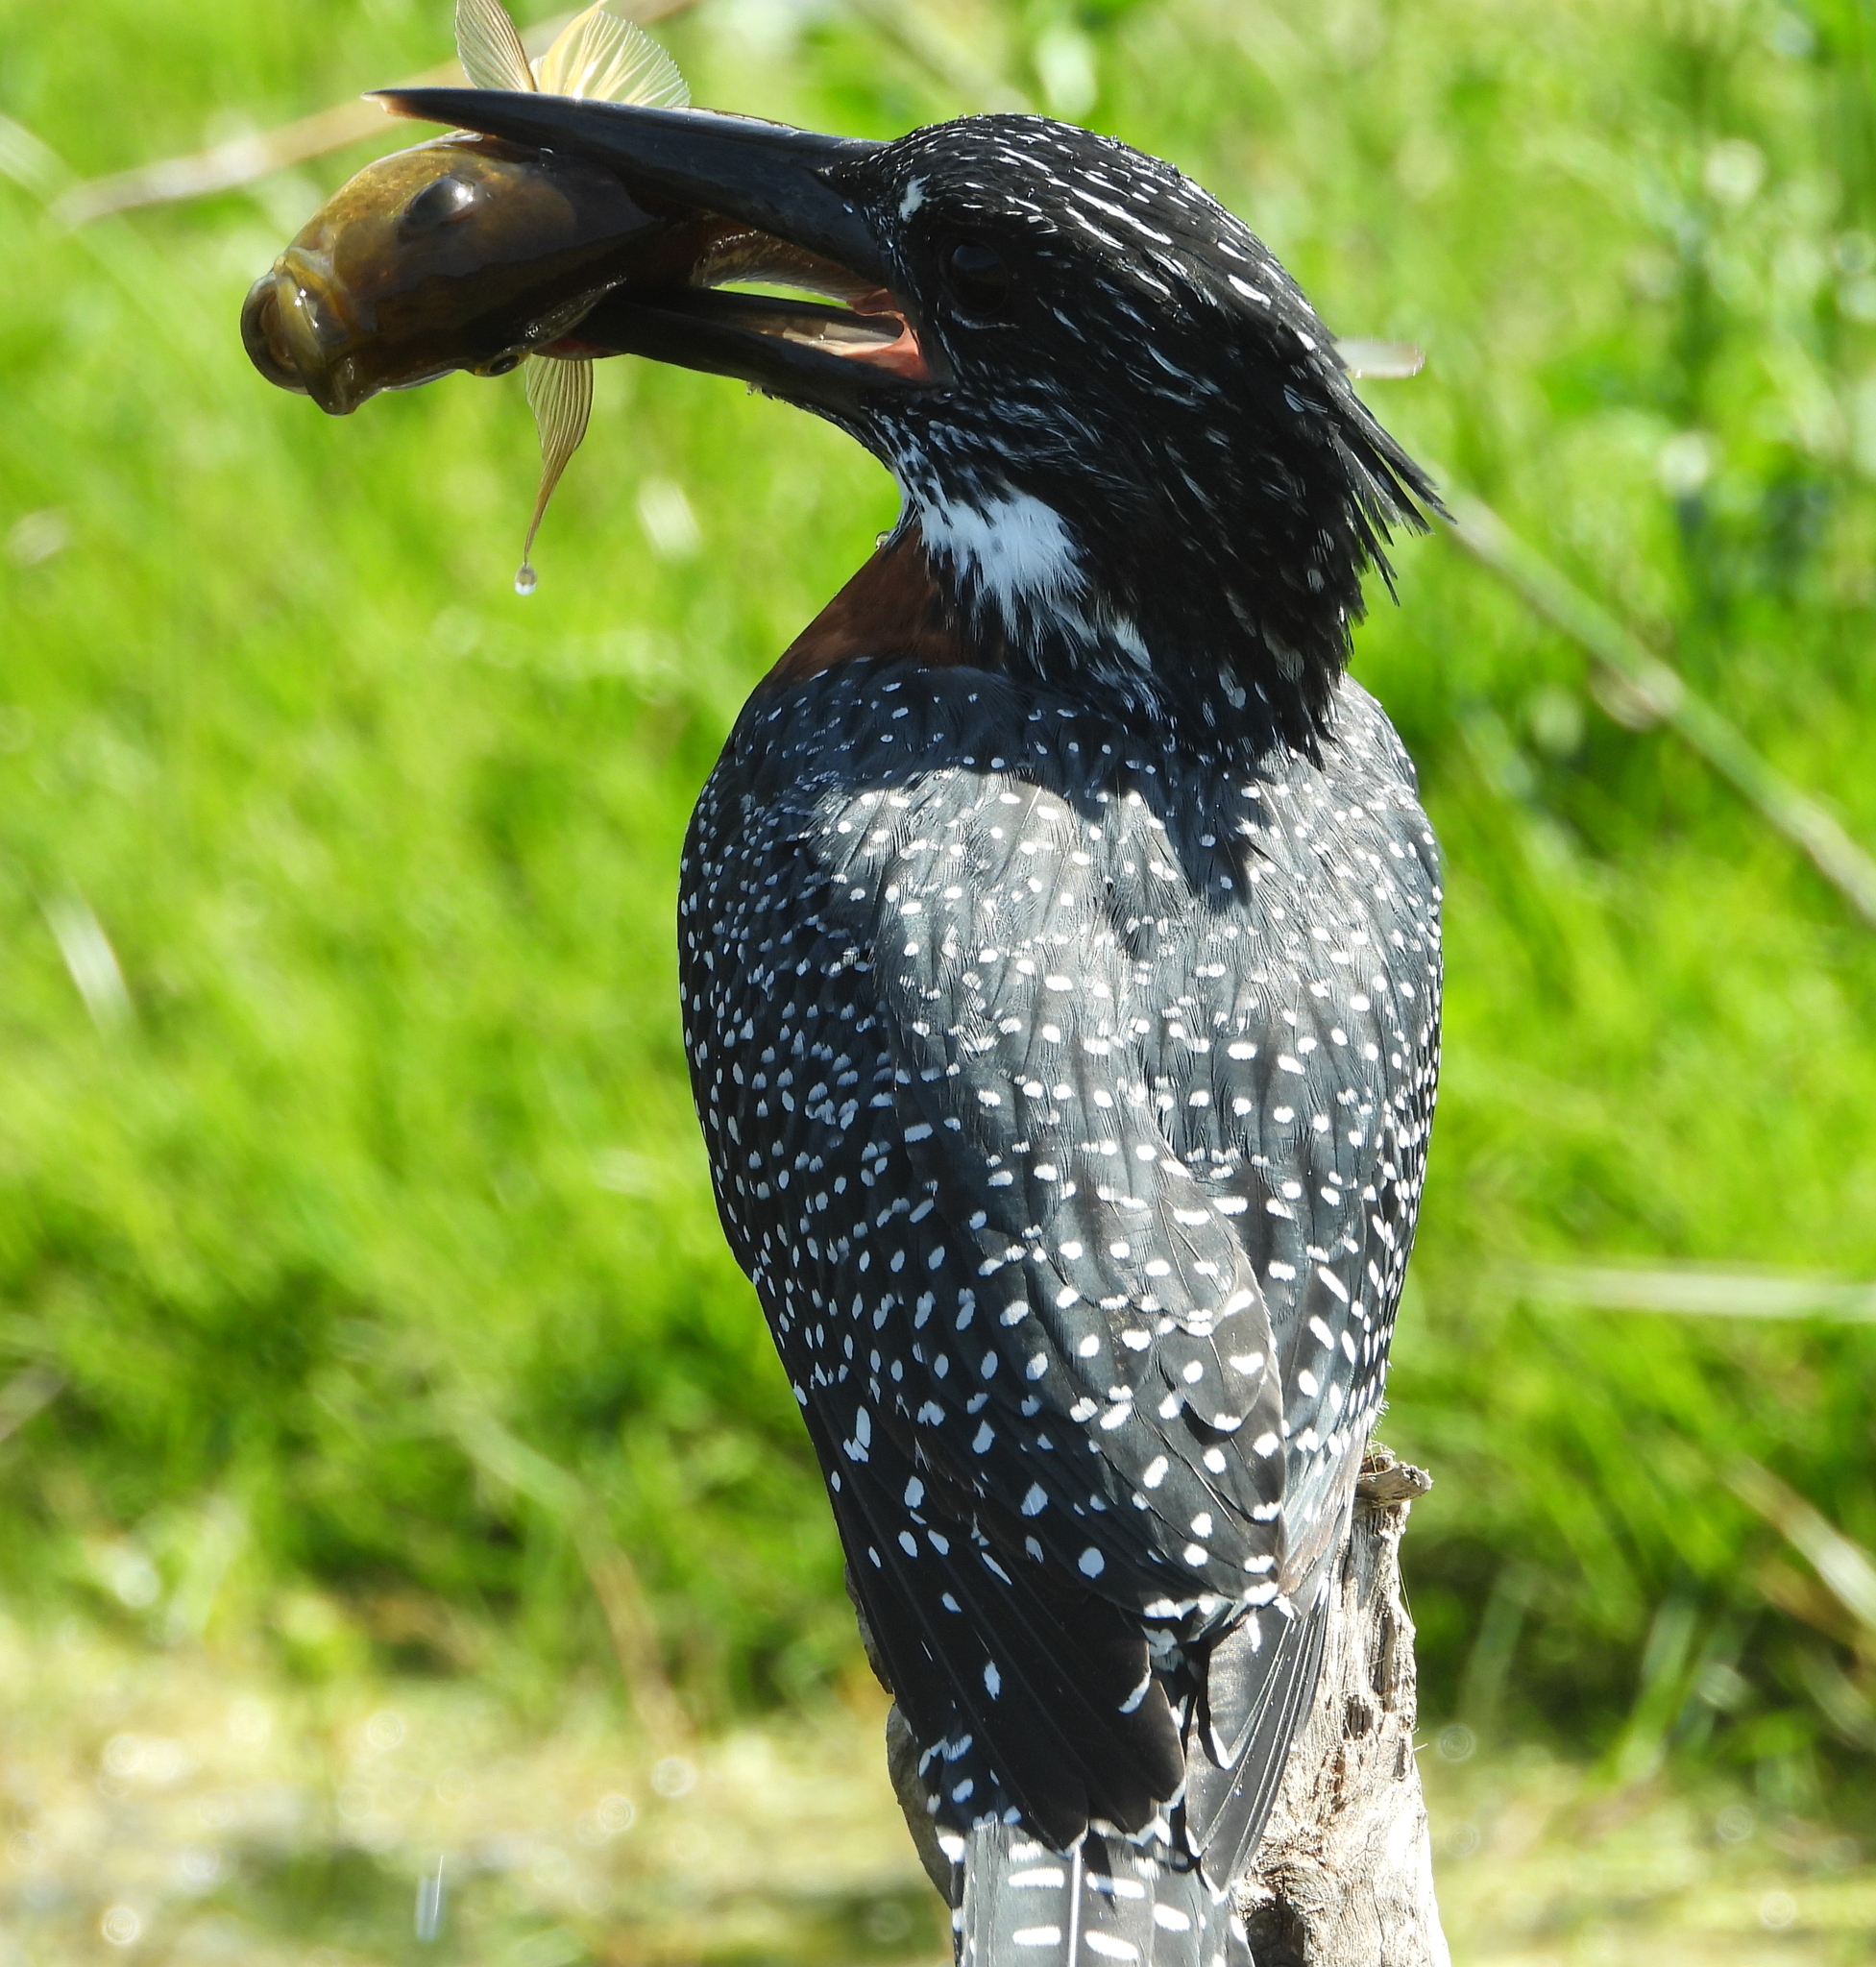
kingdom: Animalia
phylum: Chordata
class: Aves
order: Coraciiformes
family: Alcedinidae
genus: Megaceryle
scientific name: Megaceryle maxima
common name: Giant kingfisher
